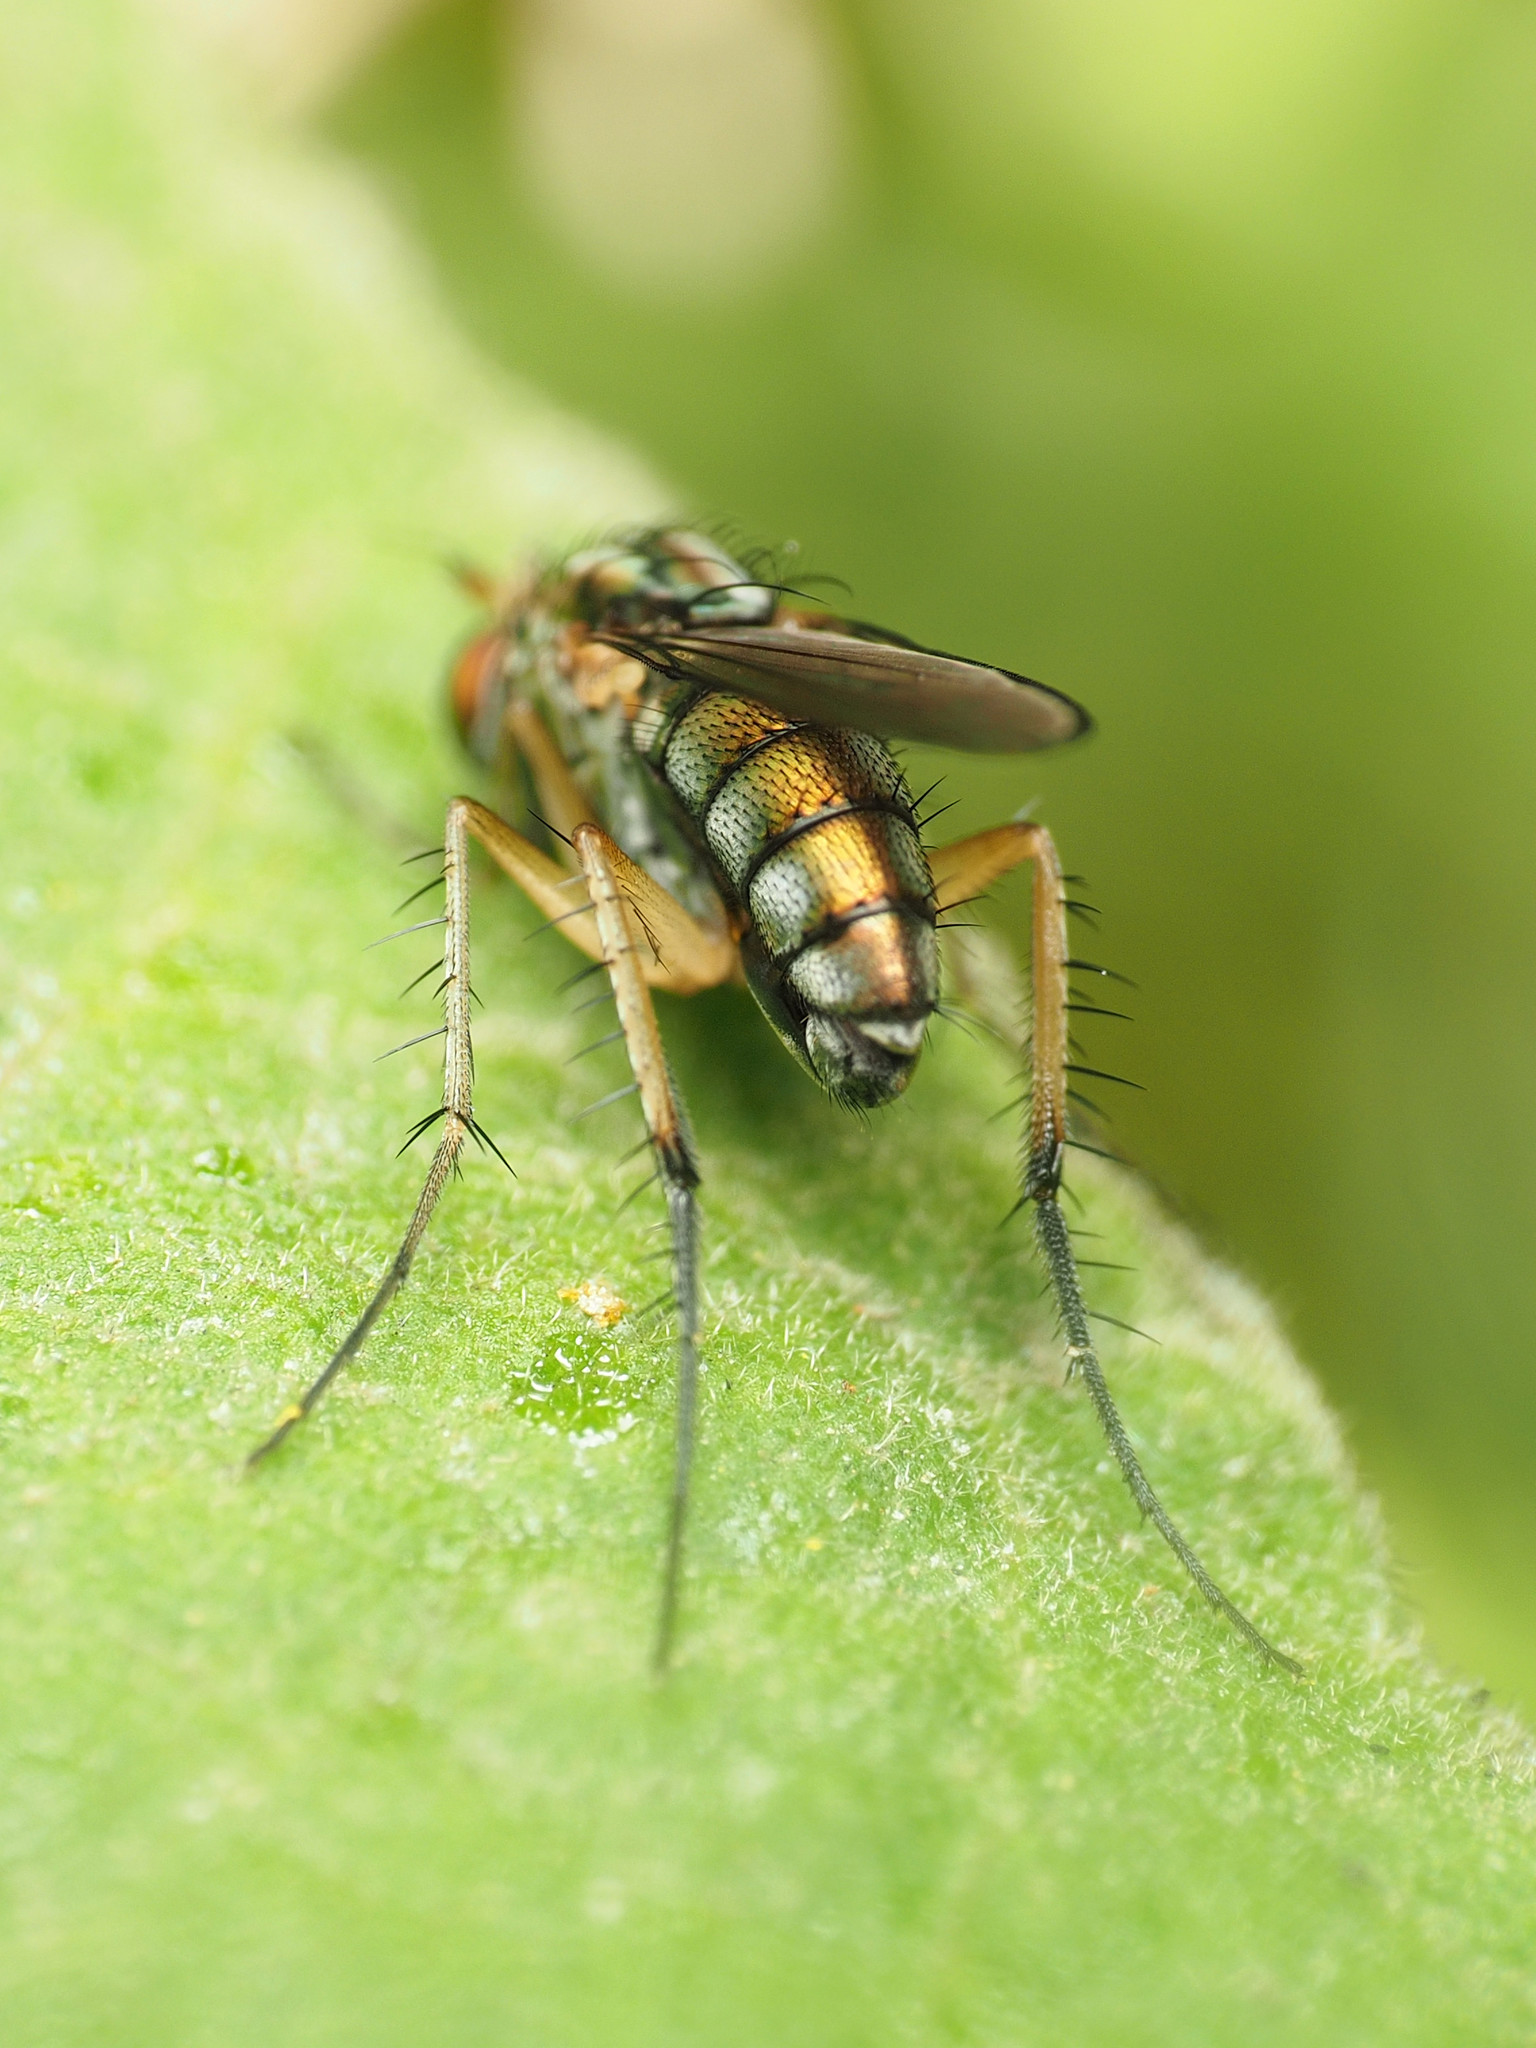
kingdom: Animalia
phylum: Arthropoda
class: Insecta
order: Diptera
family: Dolichopodidae
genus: Dolichopus
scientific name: Dolichopus reflectus
